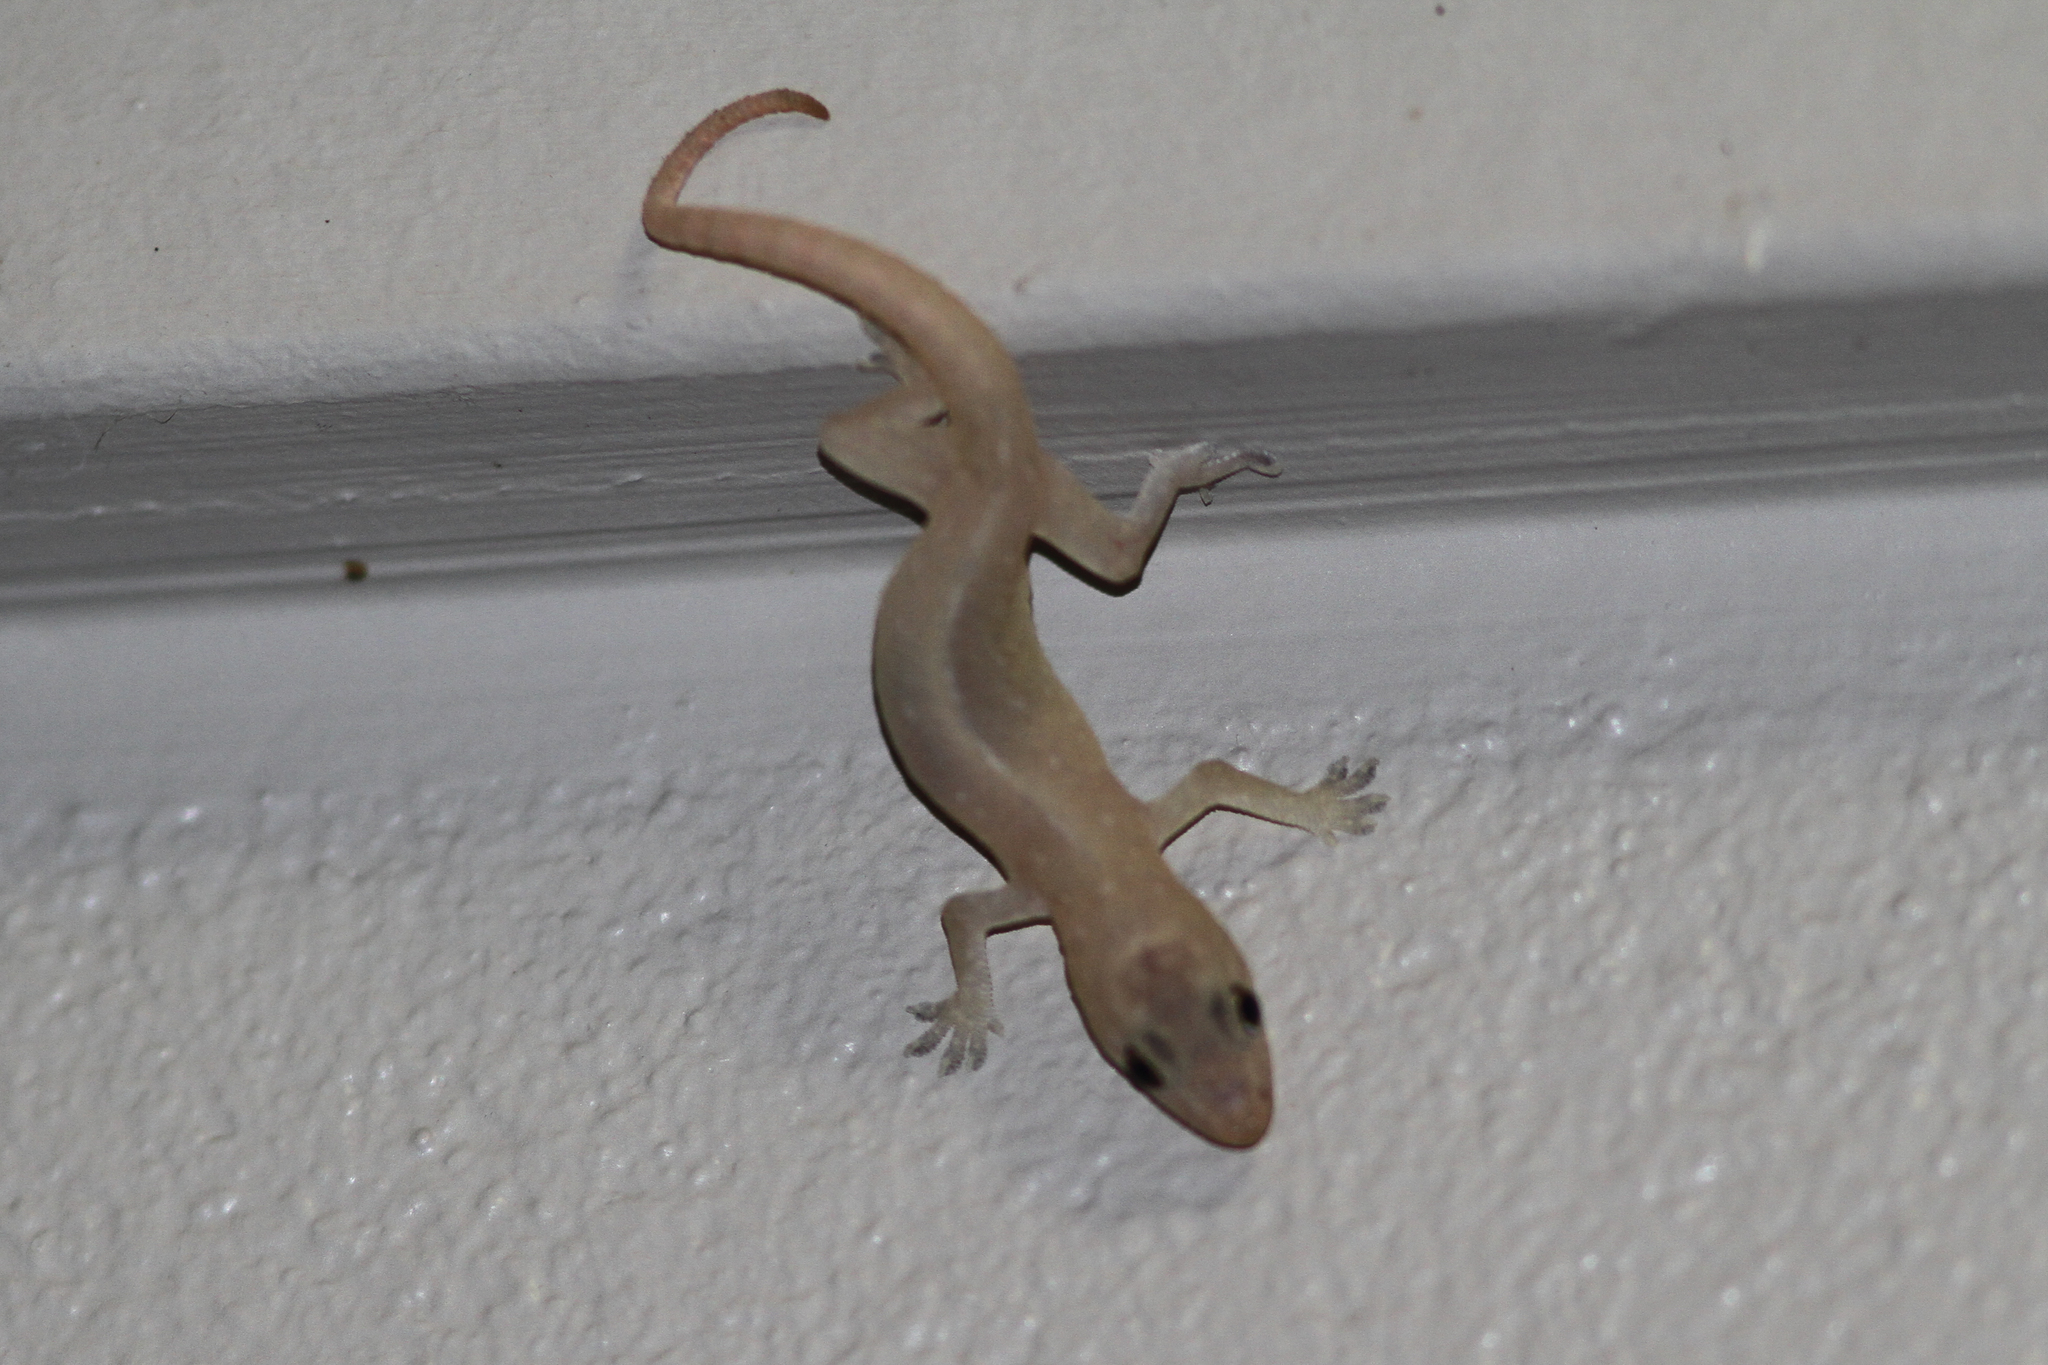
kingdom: Animalia
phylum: Chordata
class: Squamata
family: Gekkonidae
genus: Hemidactylus
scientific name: Hemidactylus frenatus
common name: Common house gecko
